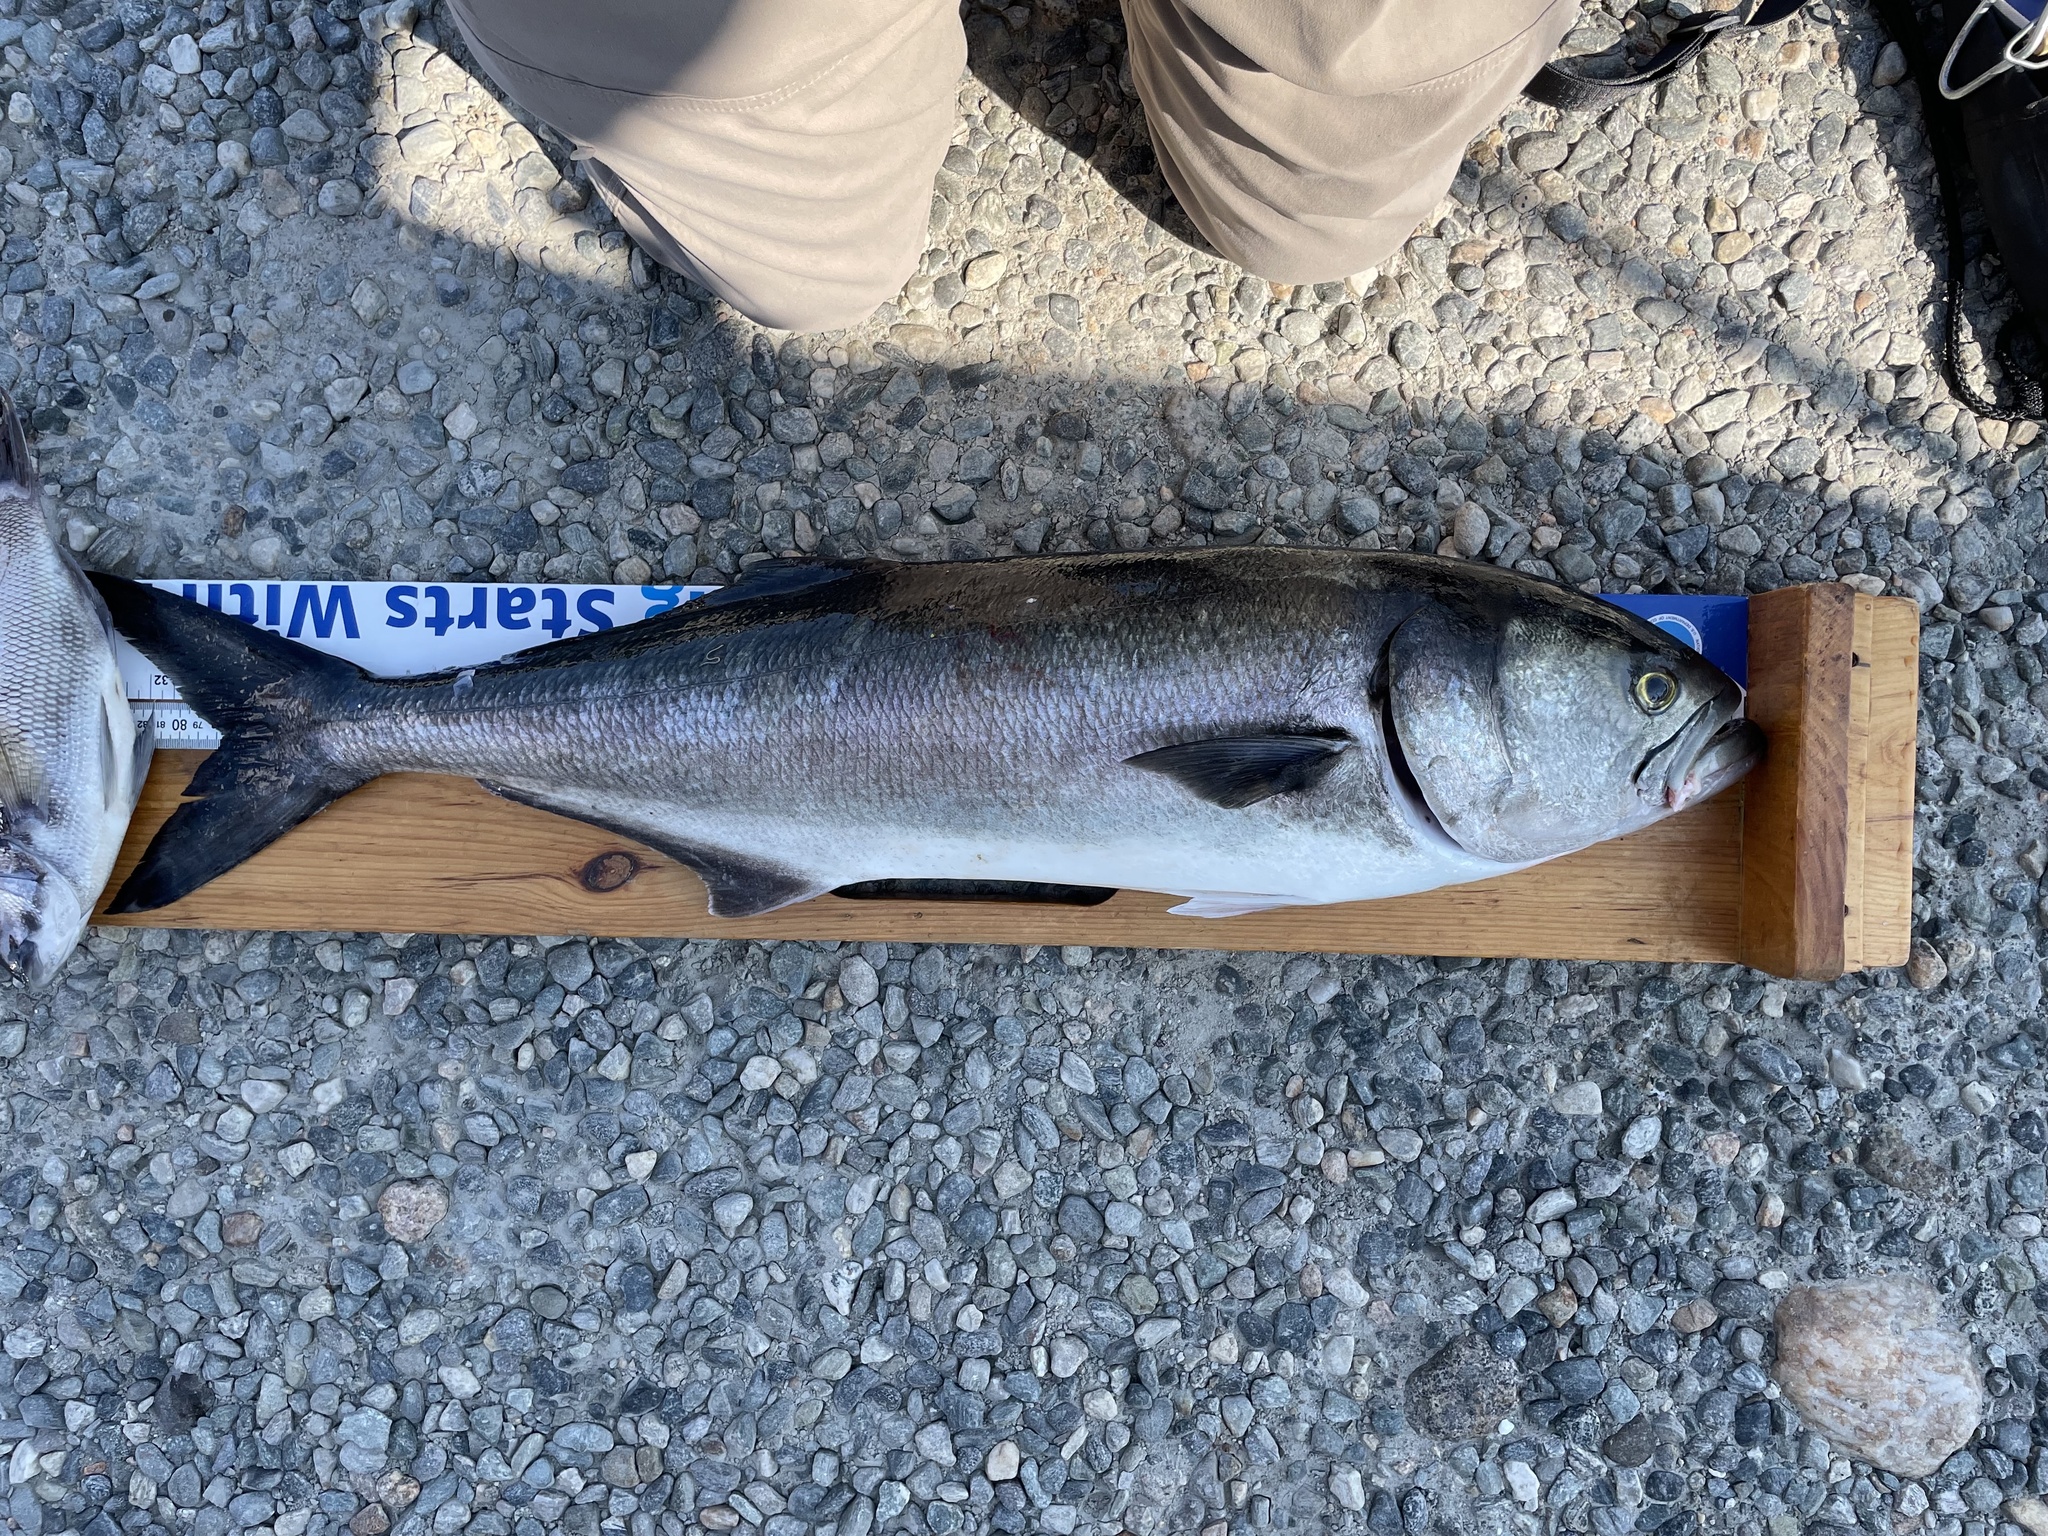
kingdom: Animalia
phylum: Chordata
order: Perciformes
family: Pomatomidae
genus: Pomatomus
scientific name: Pomatomus saltatrix
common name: Bluefish
